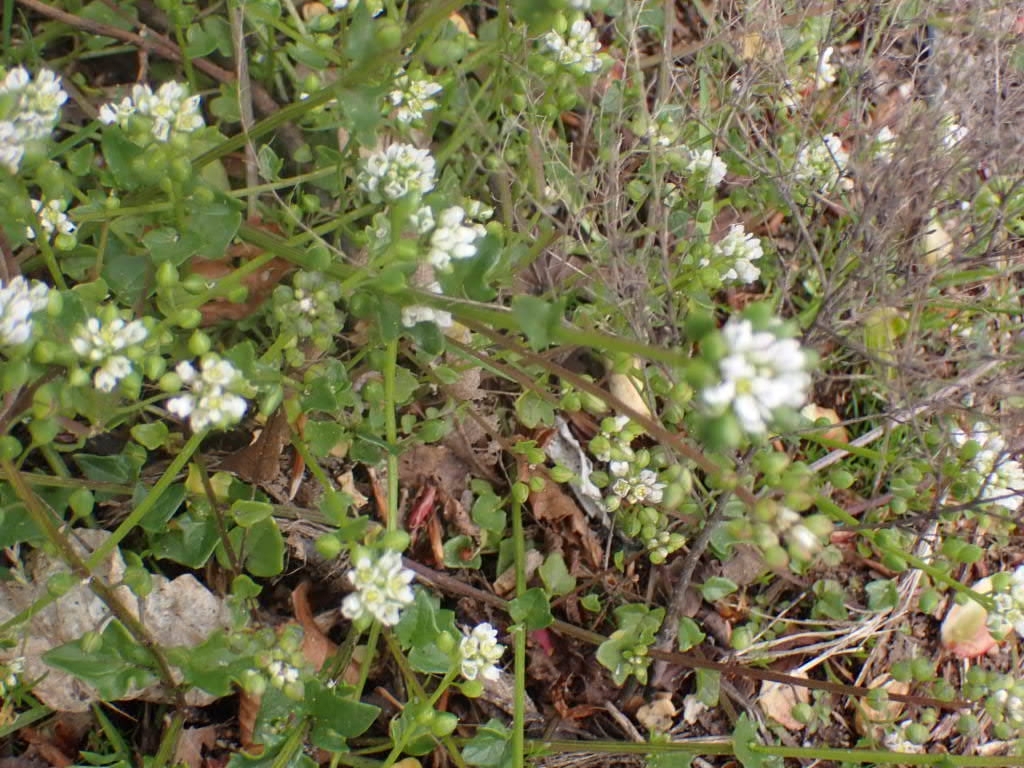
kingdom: Plantae
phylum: Tracheophyta
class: Magnoliopsida
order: Brassicales
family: Brassicaceae
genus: Cochlearia
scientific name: Cochlearia danica
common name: Early scurvygrass
